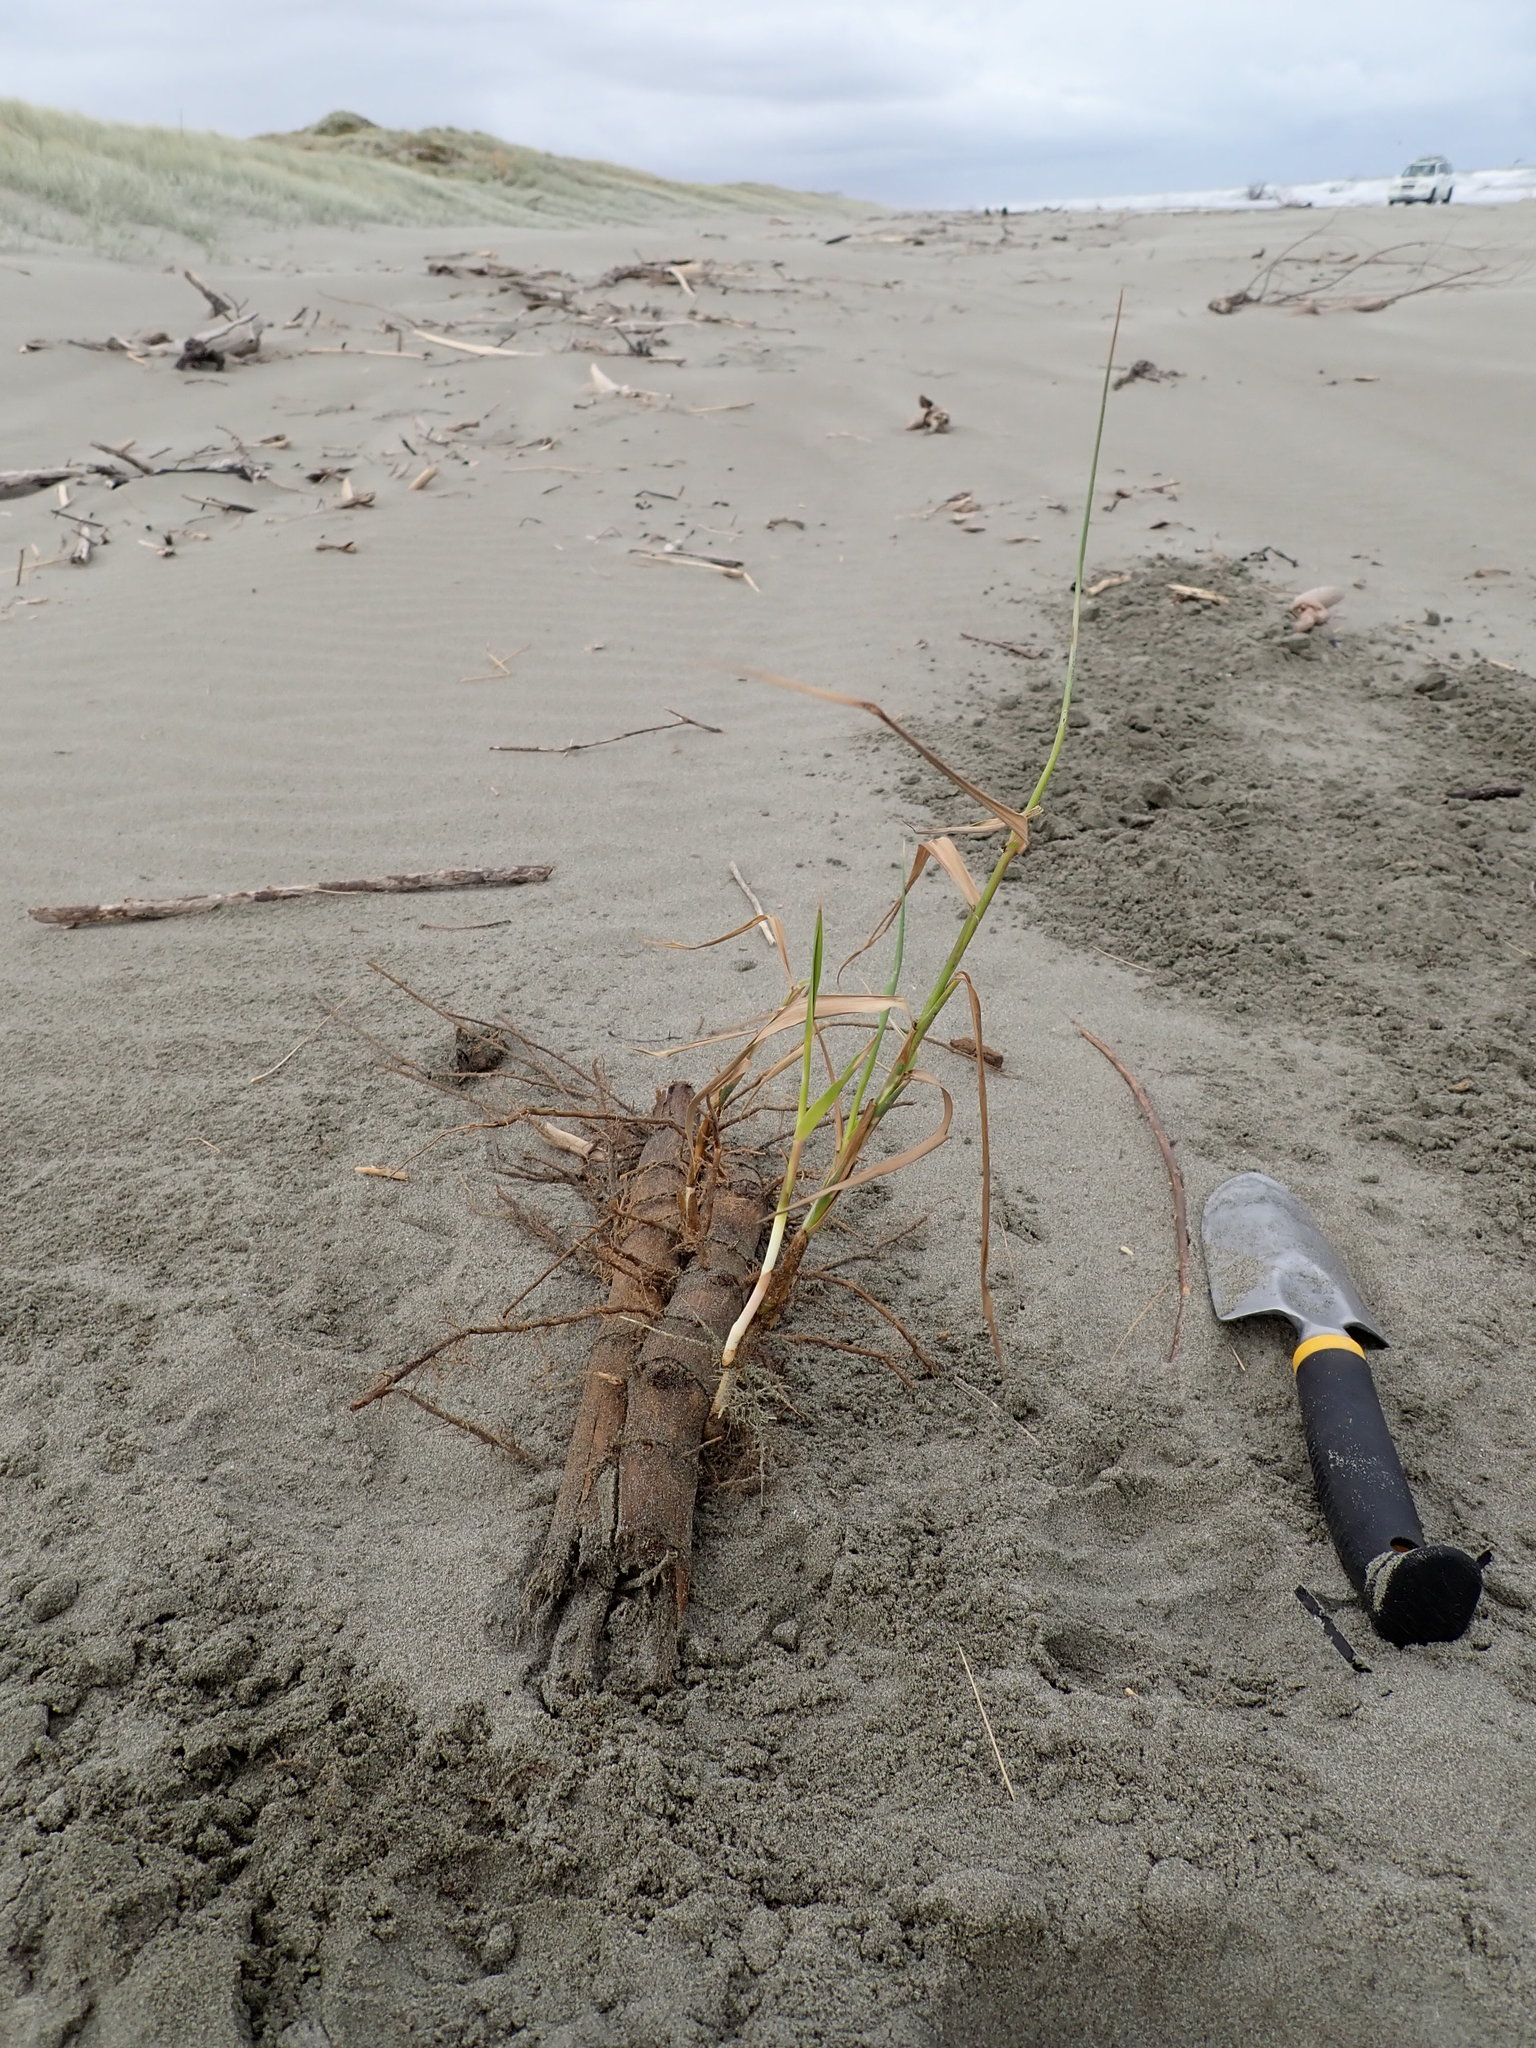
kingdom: Plantae
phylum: Tracheophyta
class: Liliopsida
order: Poales
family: Poaceae
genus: Phragmites
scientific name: Phragmites karka
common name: Tropical reed
